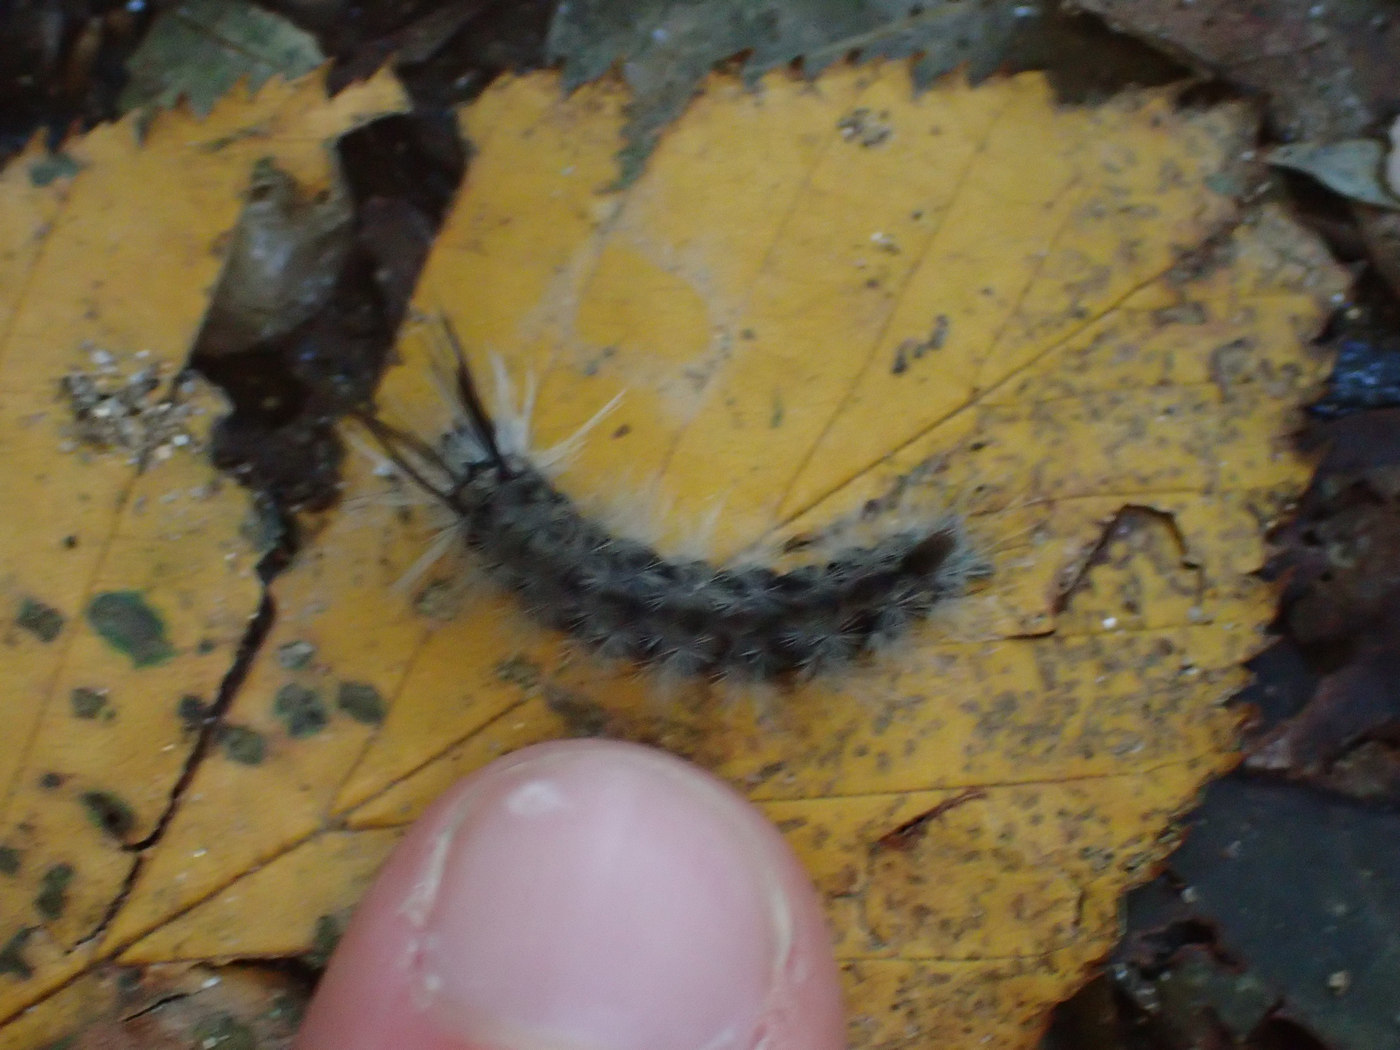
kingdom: Animalia
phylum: Arthropoda
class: Insecta
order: Lepidoptera
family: Erebidae
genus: Halysidota
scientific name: Halysidota tessellaris
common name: Banded tussock moth
